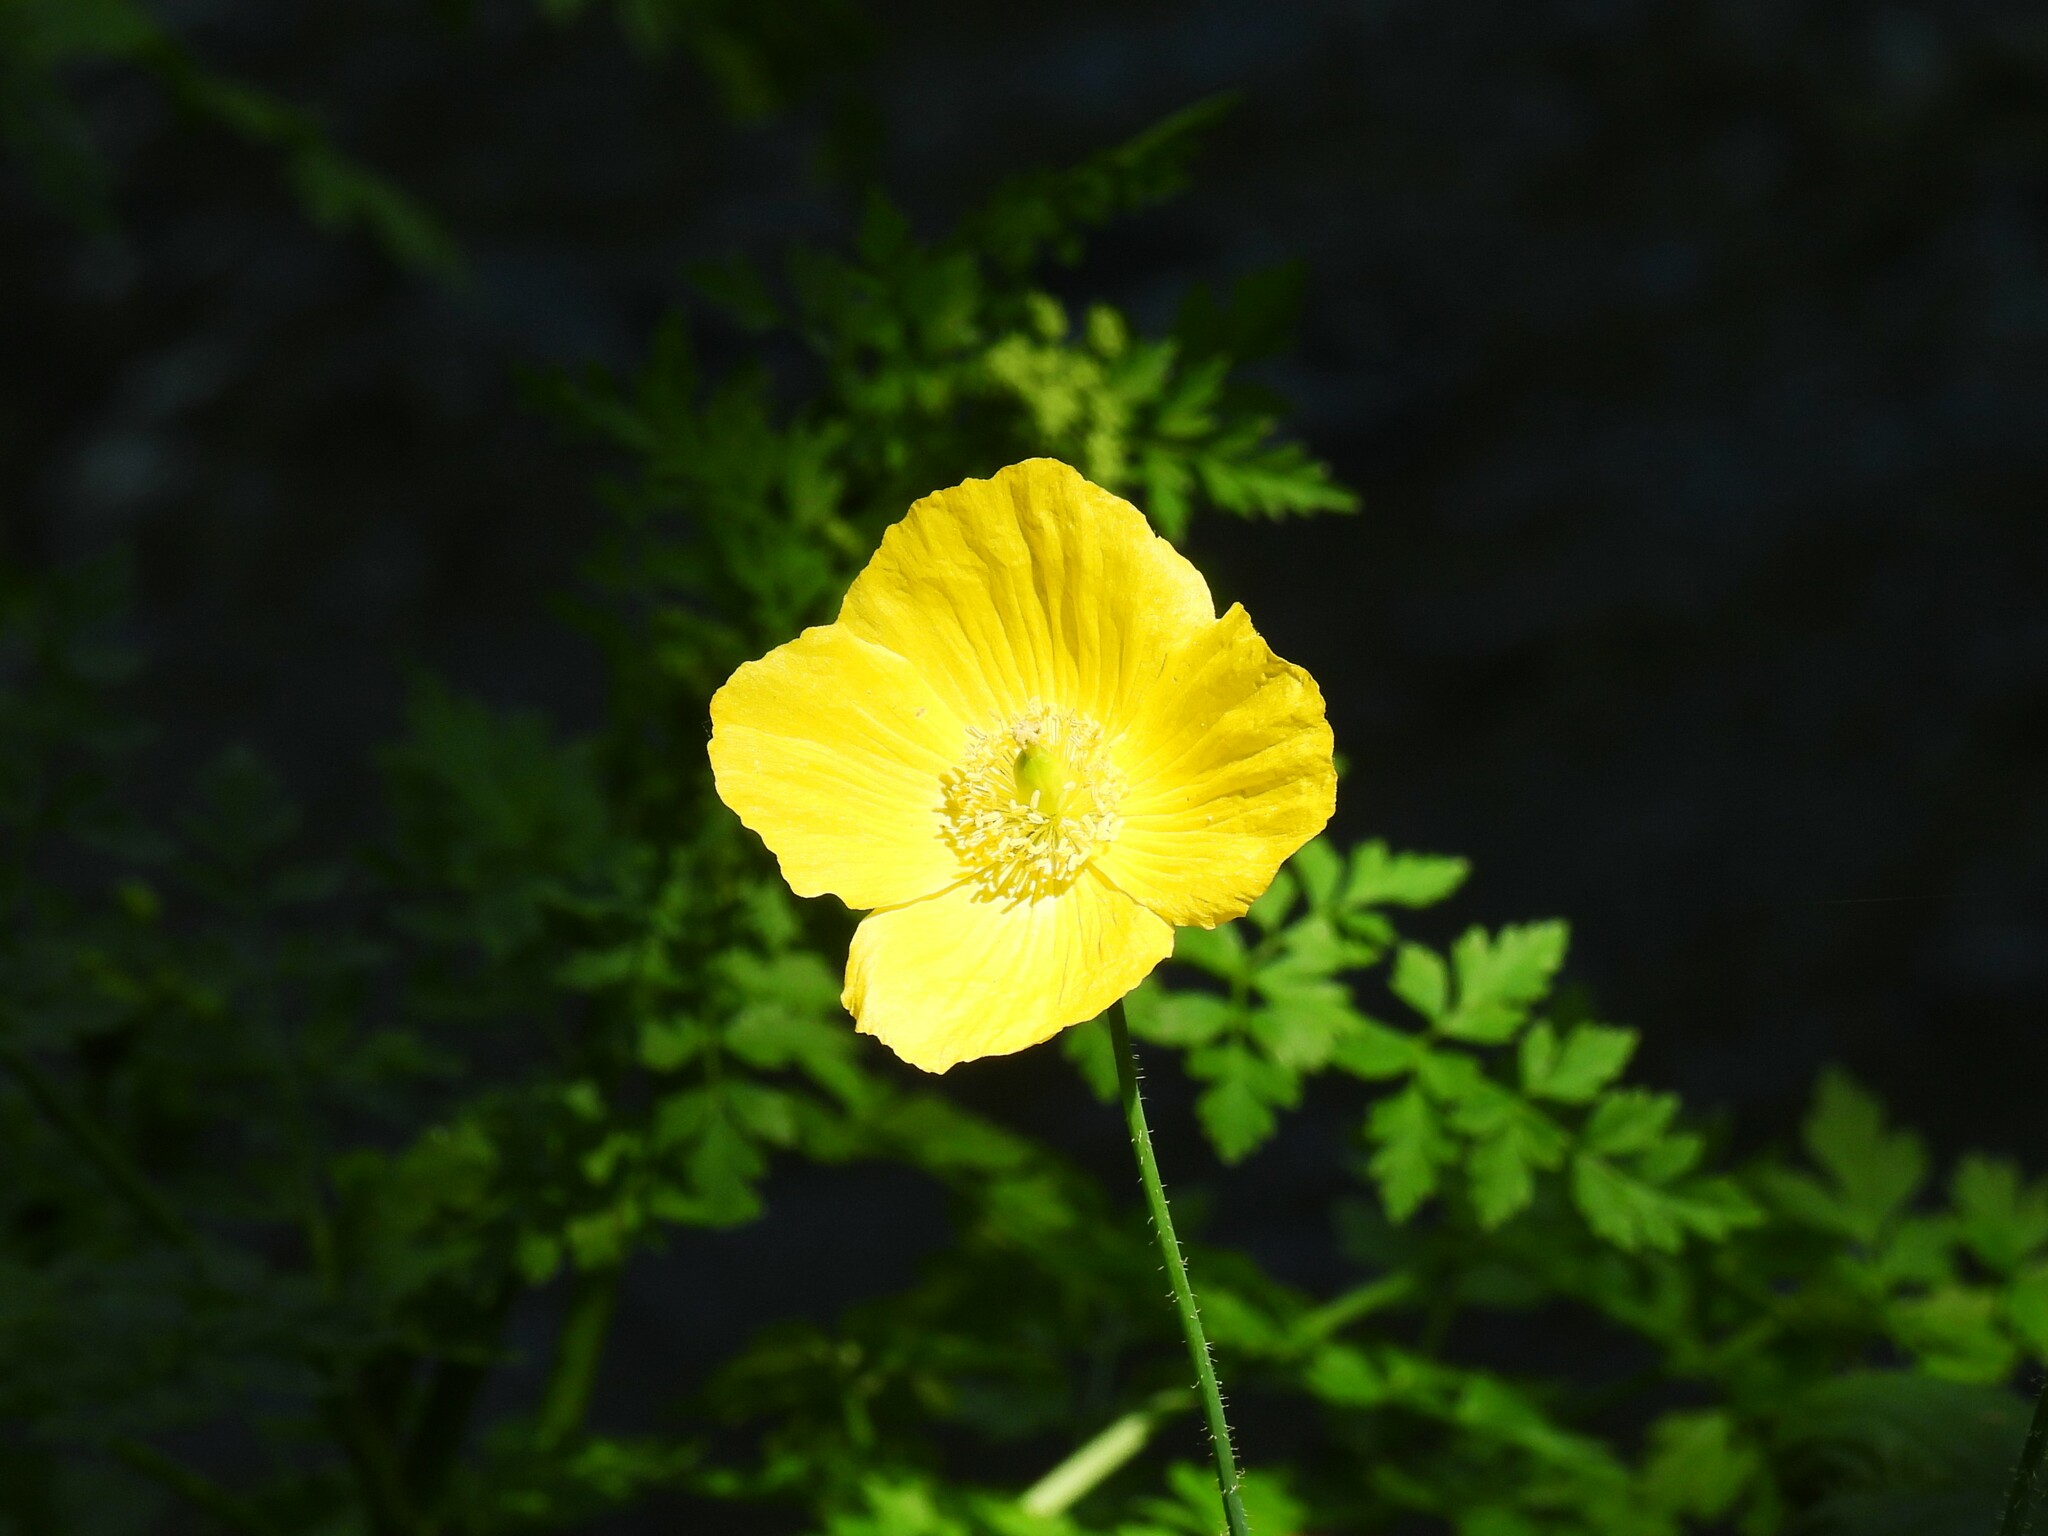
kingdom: Plantae
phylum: Tracheophyta
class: Magnoliopsida
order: Ranunculales
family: Papaveraceae
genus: Papaver
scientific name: Papaver cambricum
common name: Poppy
